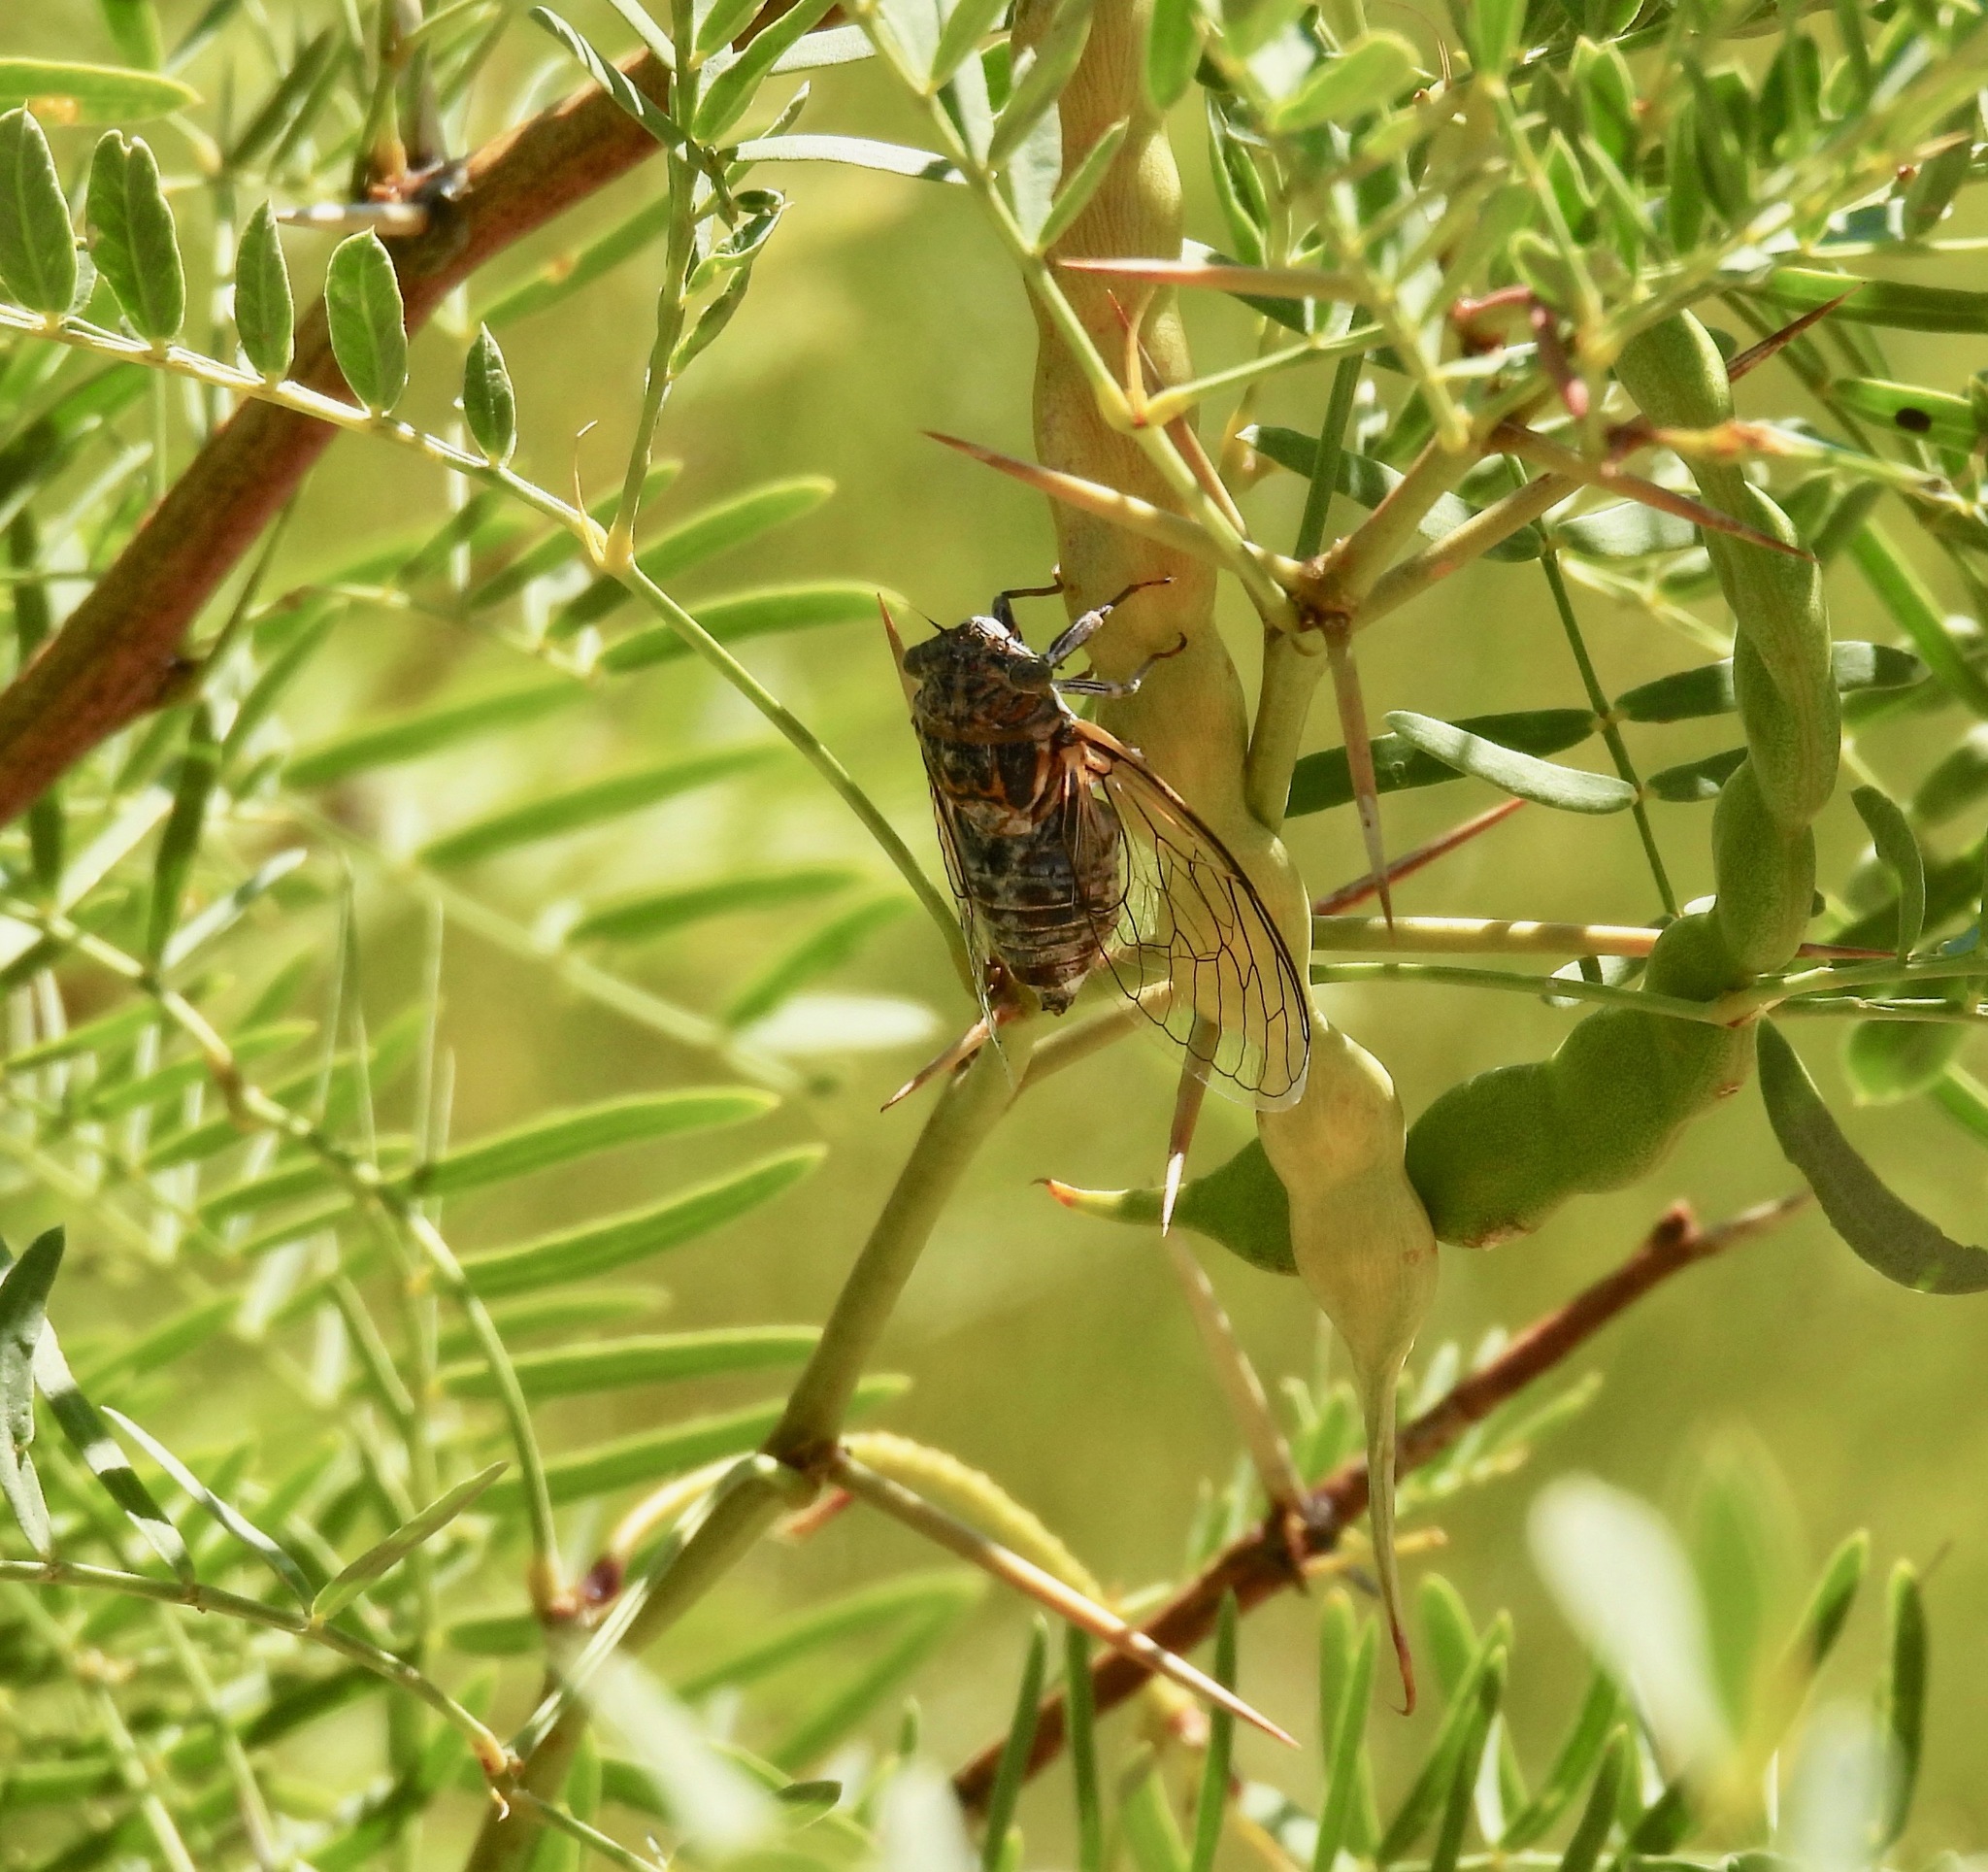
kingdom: Animalia
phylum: Arthropoda
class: Insecta
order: Hemiptera
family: Cicadidae
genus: Diceroprocta
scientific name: Diceroprocta eugraphica
